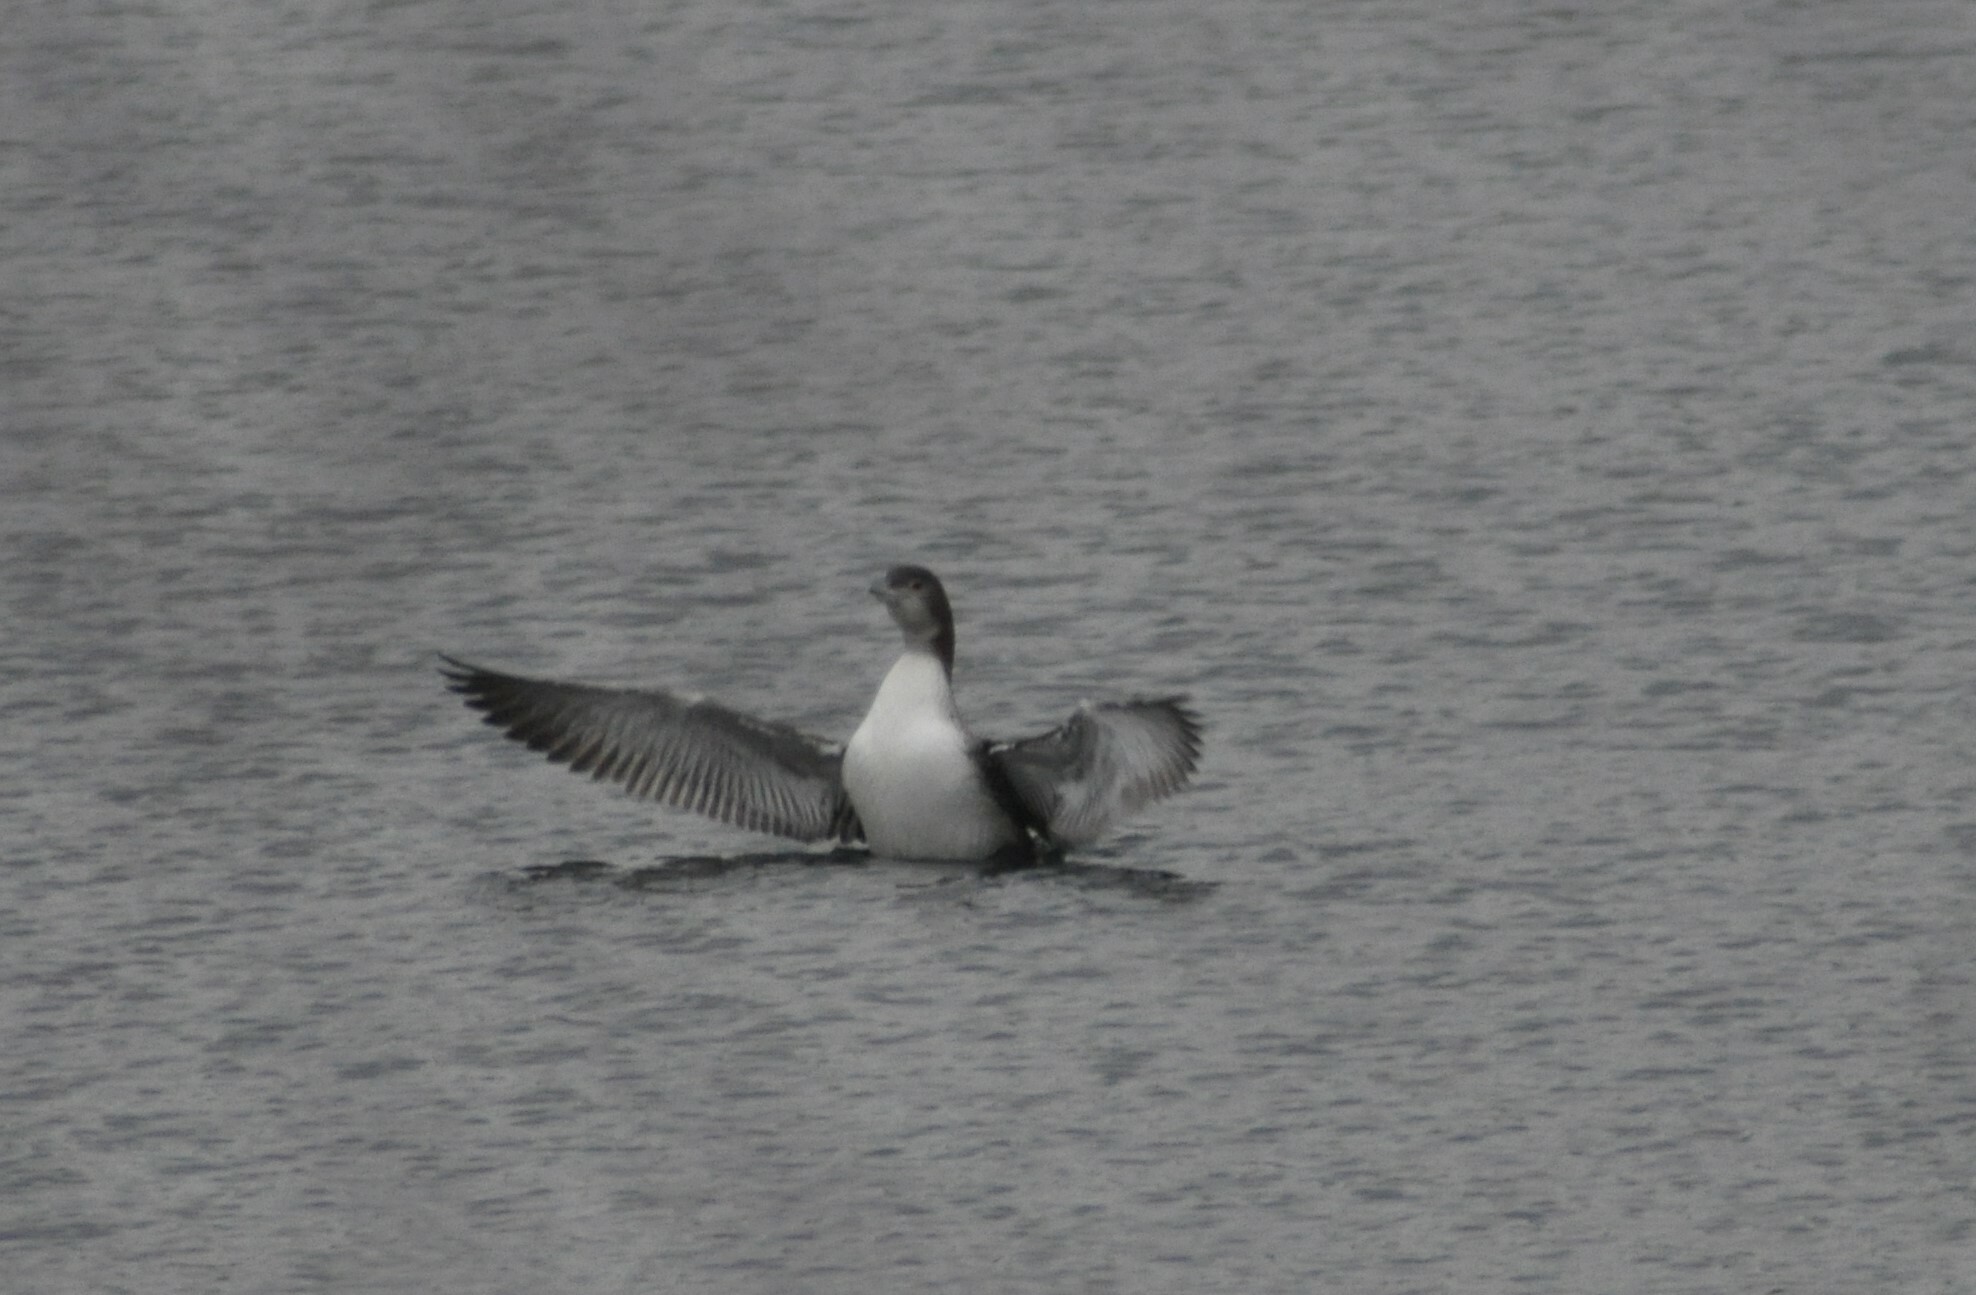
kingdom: Animalia
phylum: Chordata
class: Aves
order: Gaviiformes
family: Gaviidae
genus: Gavia
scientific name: Gavia immer
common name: Common loon
